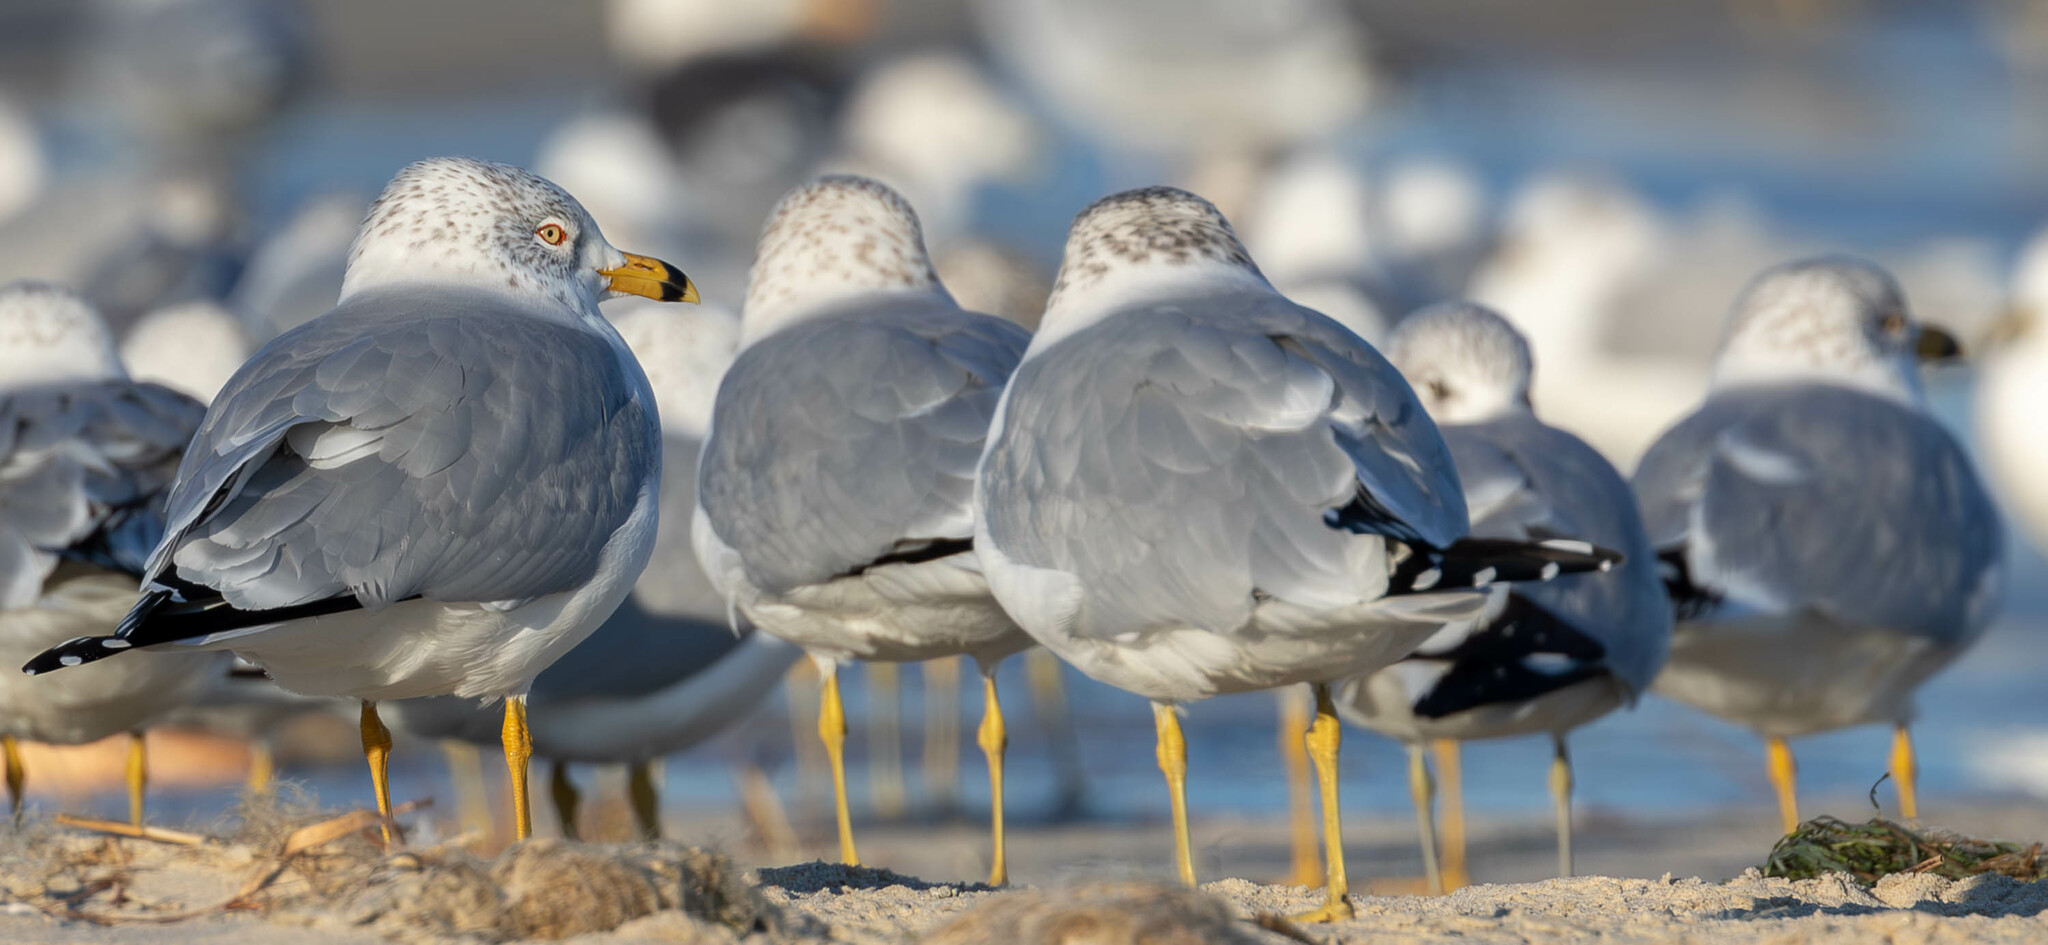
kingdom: Animalia
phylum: Chordata
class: Aves
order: Charadriiformes
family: Laridae
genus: Larus
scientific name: Larus delawarensis
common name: Ring-billed gull
